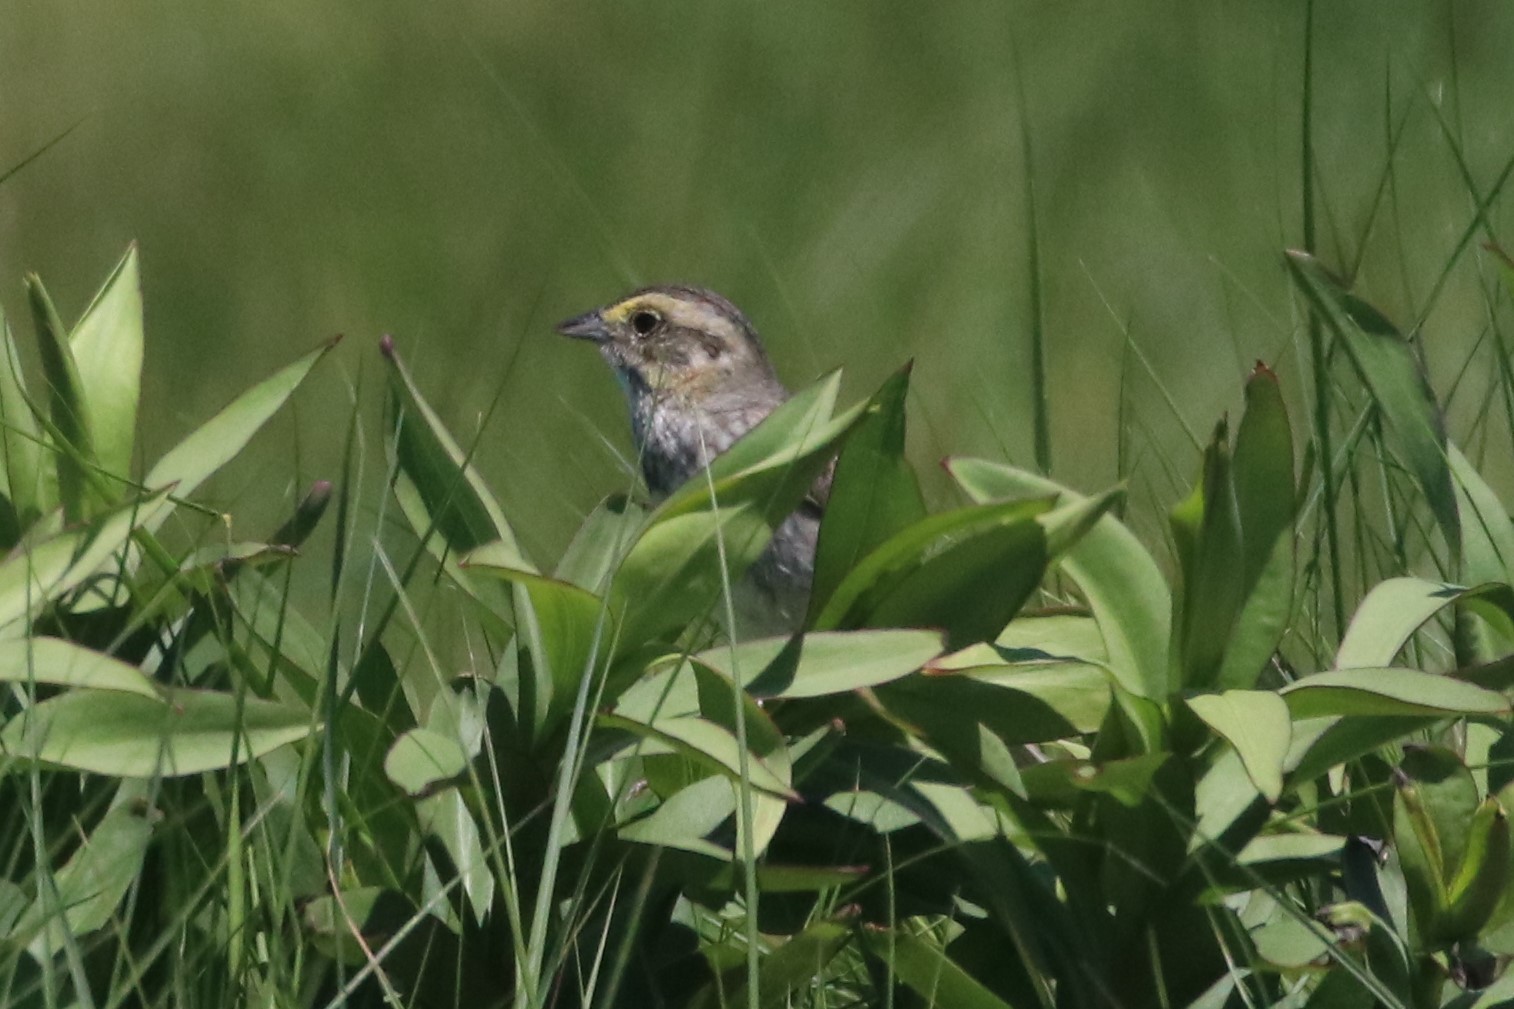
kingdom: Animalia
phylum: Chordata
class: Aves
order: Passeriformes
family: Passerellidae
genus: Ammospiza
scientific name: Ammospiza nelsoni
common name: Nelson's sparrow
